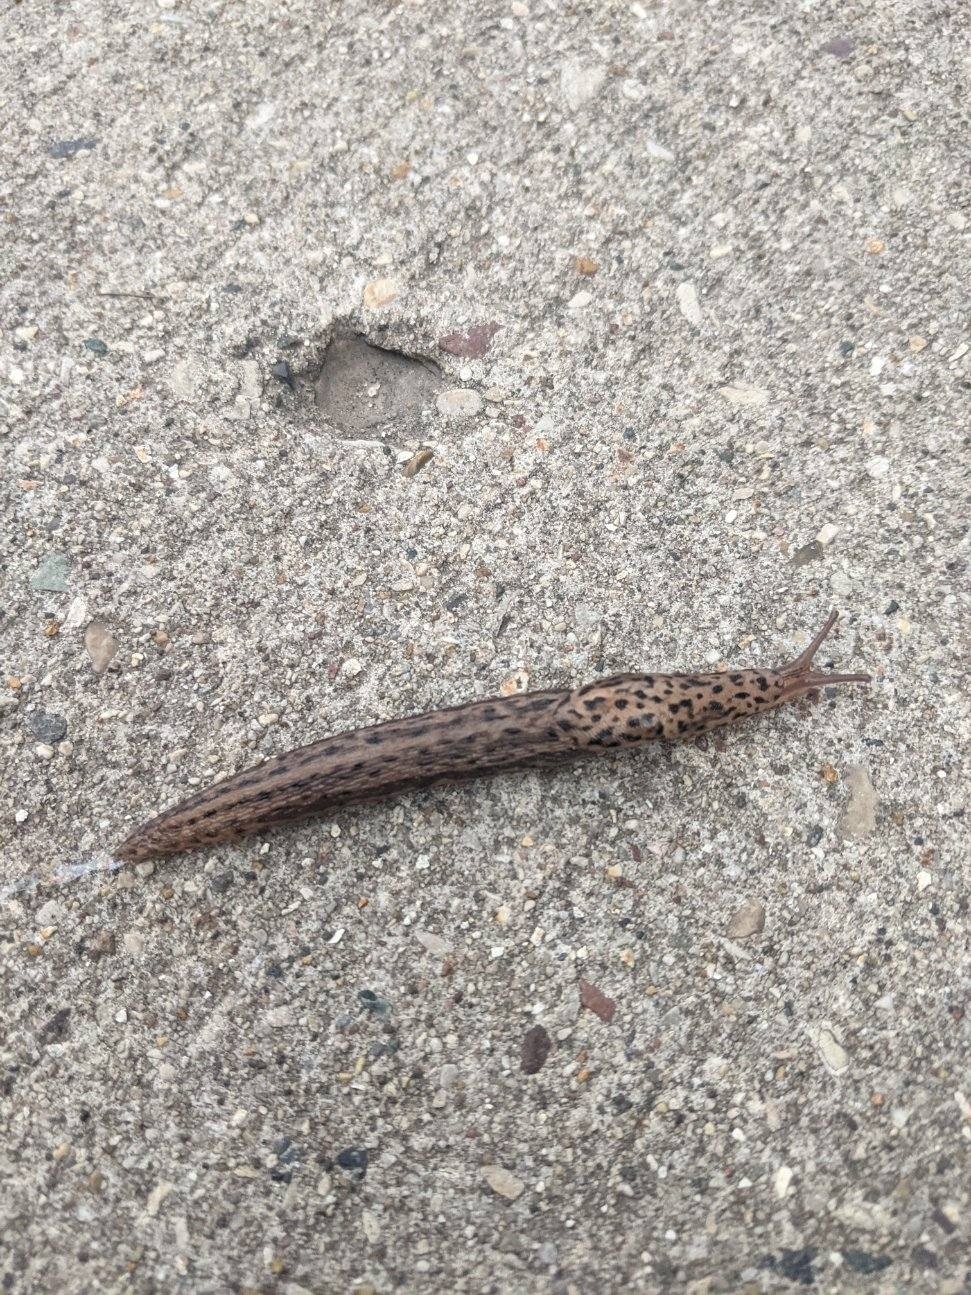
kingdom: Animalia
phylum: Mollusca
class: Gastropoda
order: Stylommatophora
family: Limacidae
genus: Limax
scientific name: Limax maximus
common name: Great grey slug
